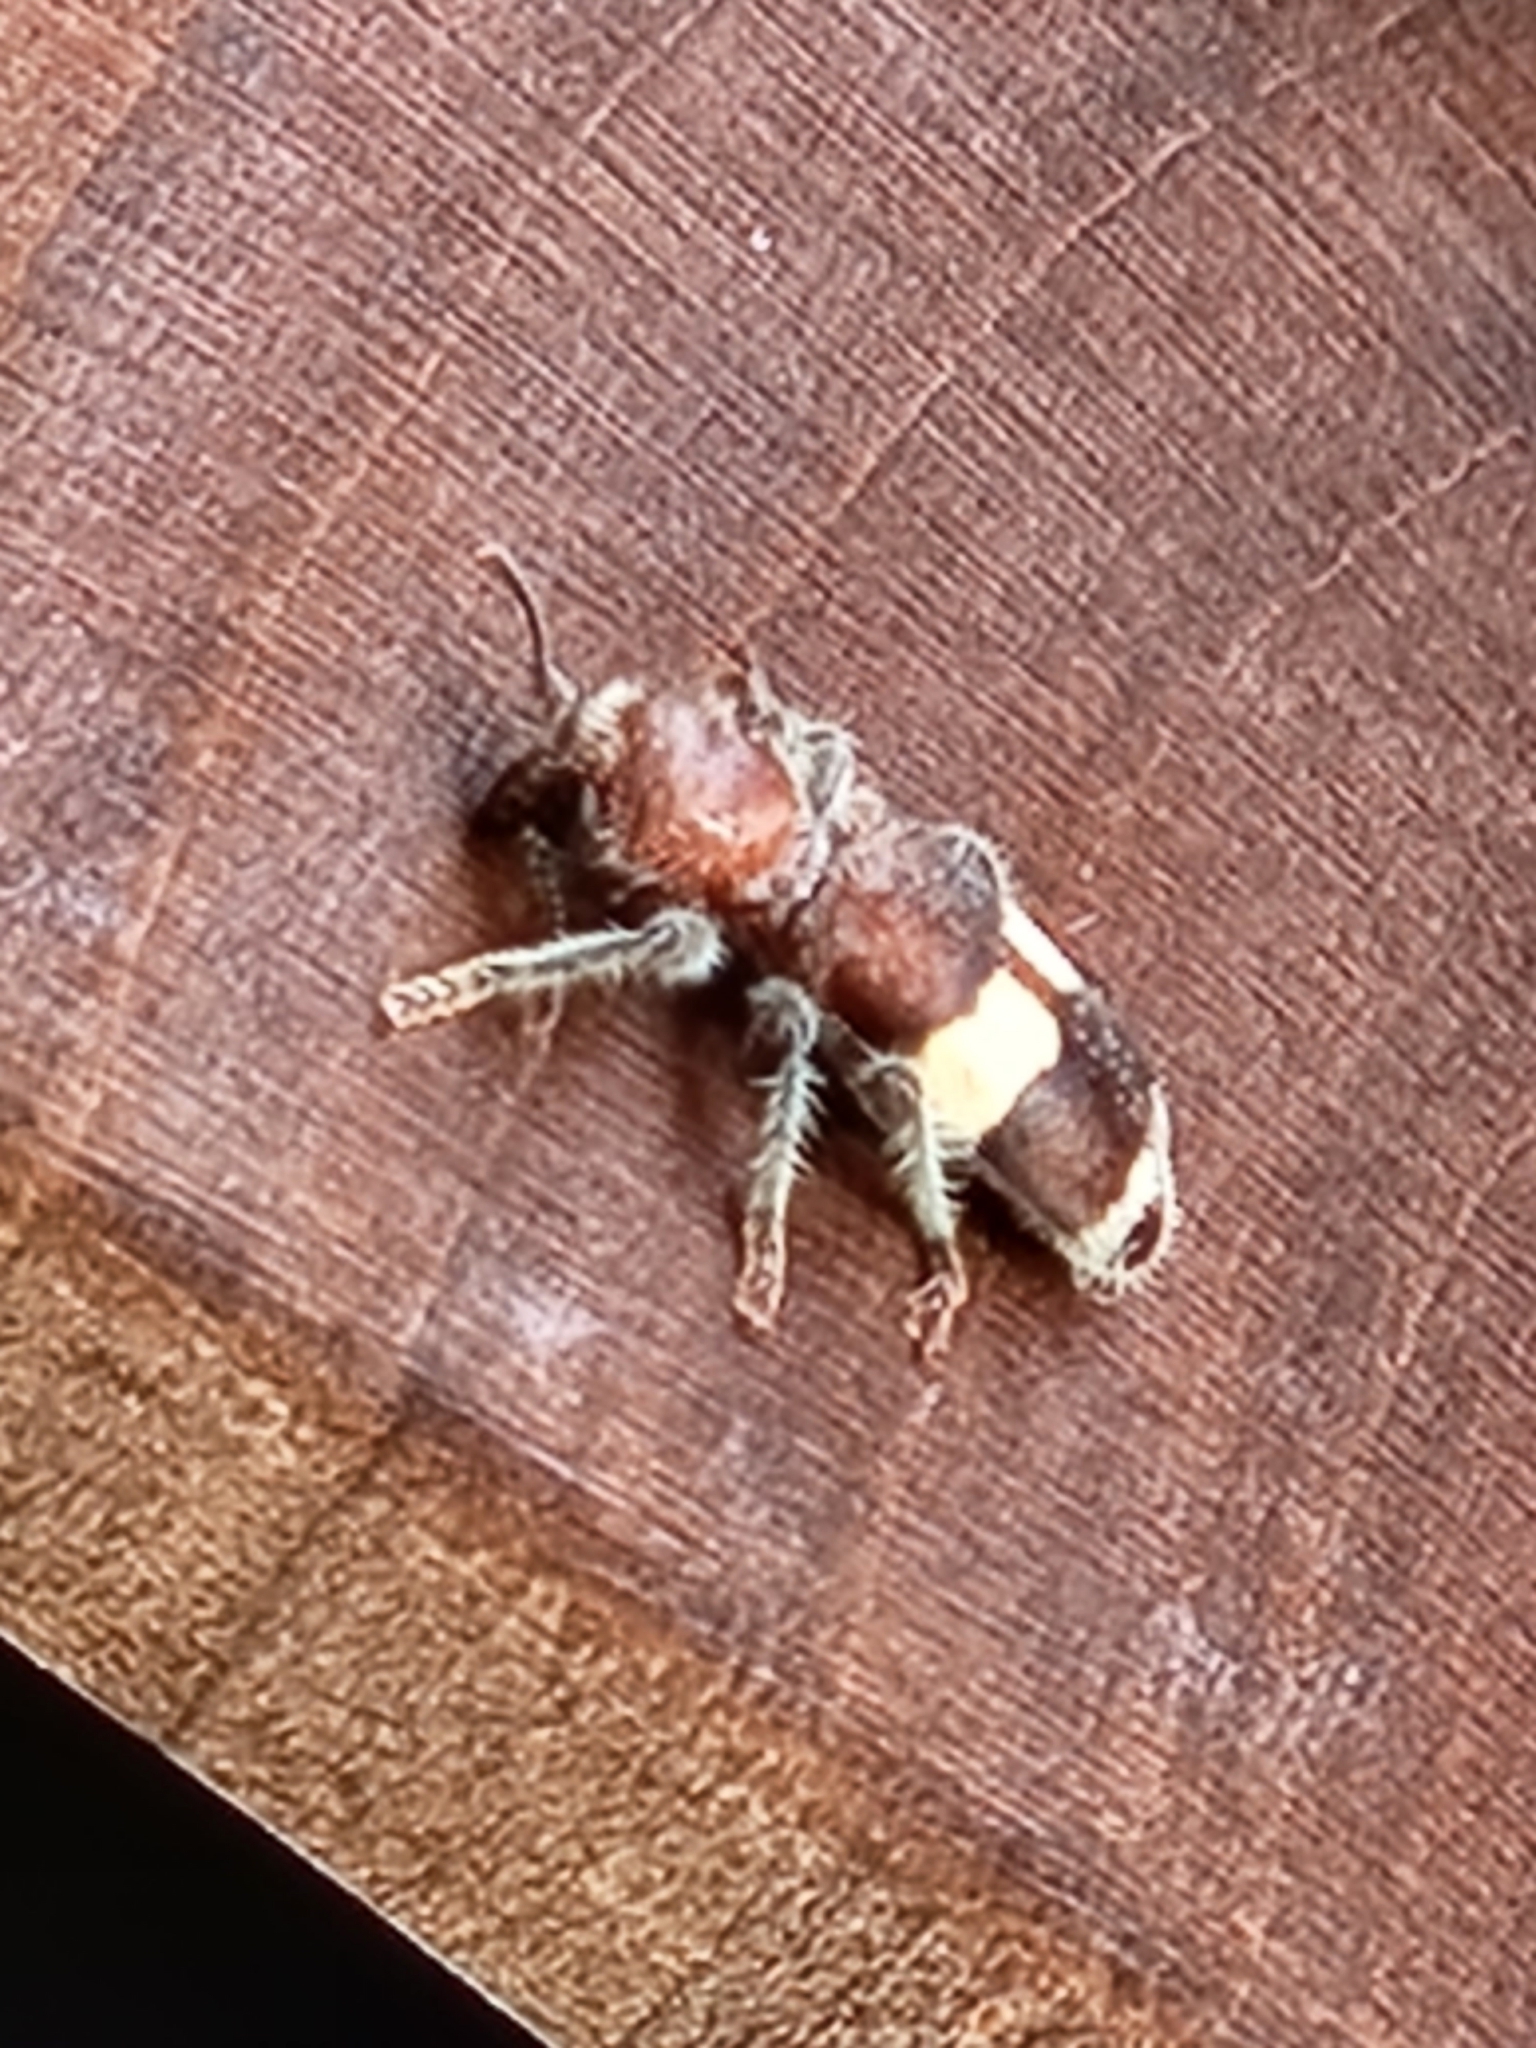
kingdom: Animalia
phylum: Arthropoda
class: Insecta
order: Coleoptera
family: Cleridae
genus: Enoclerus
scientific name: Enoclerus quadrisignatus
